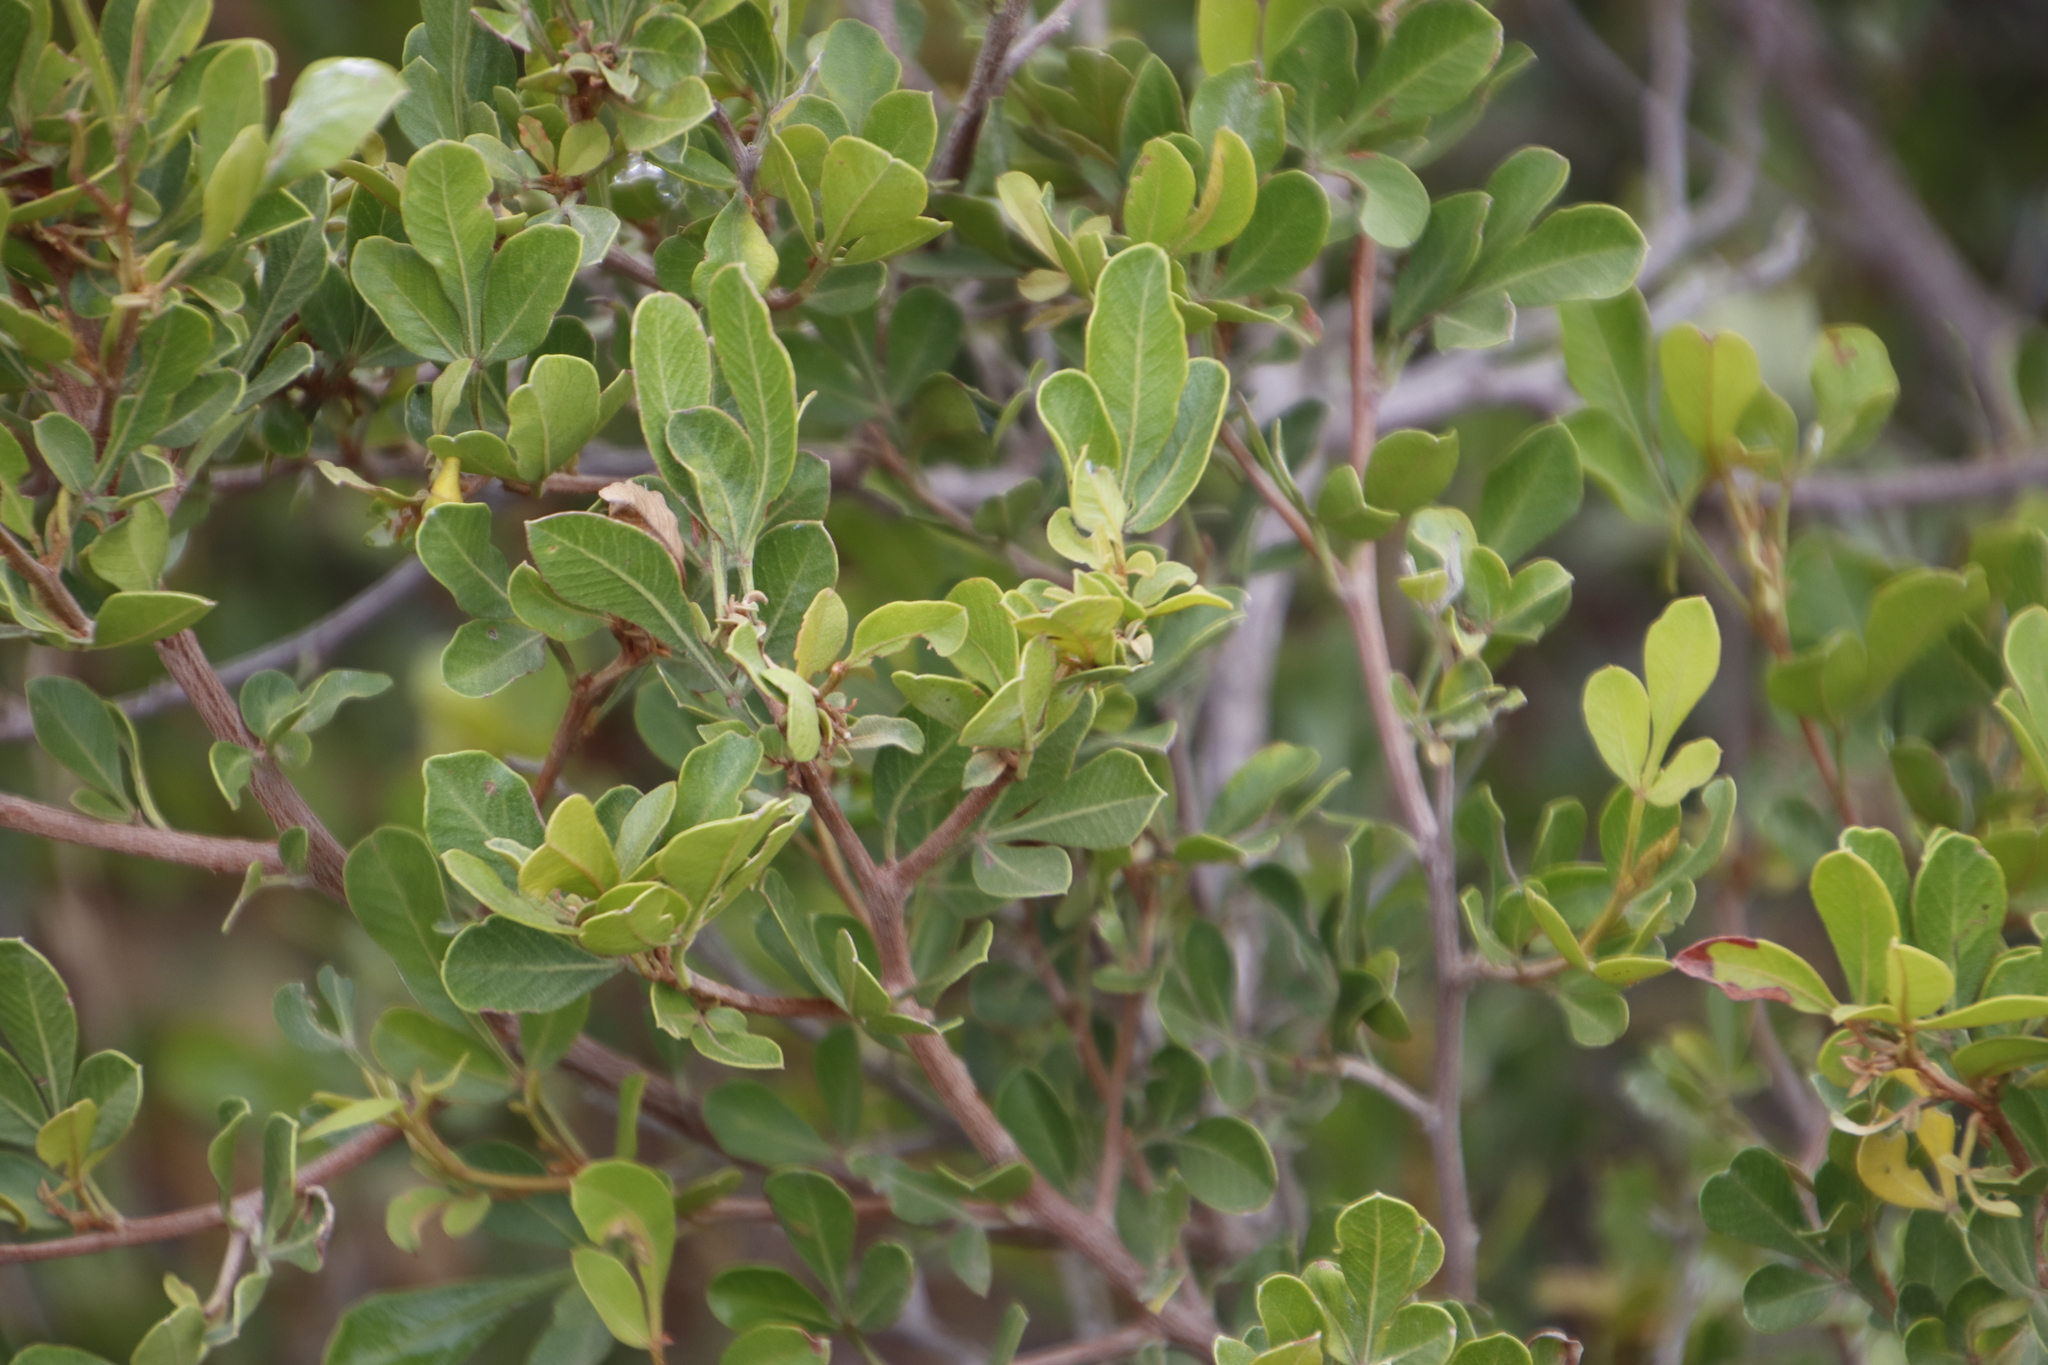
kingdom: Plantae
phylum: Tracheophyta
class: Magnoliopsida
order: Sapindales
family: Anacardiaceae
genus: Searsia
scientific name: Searsia pallens
